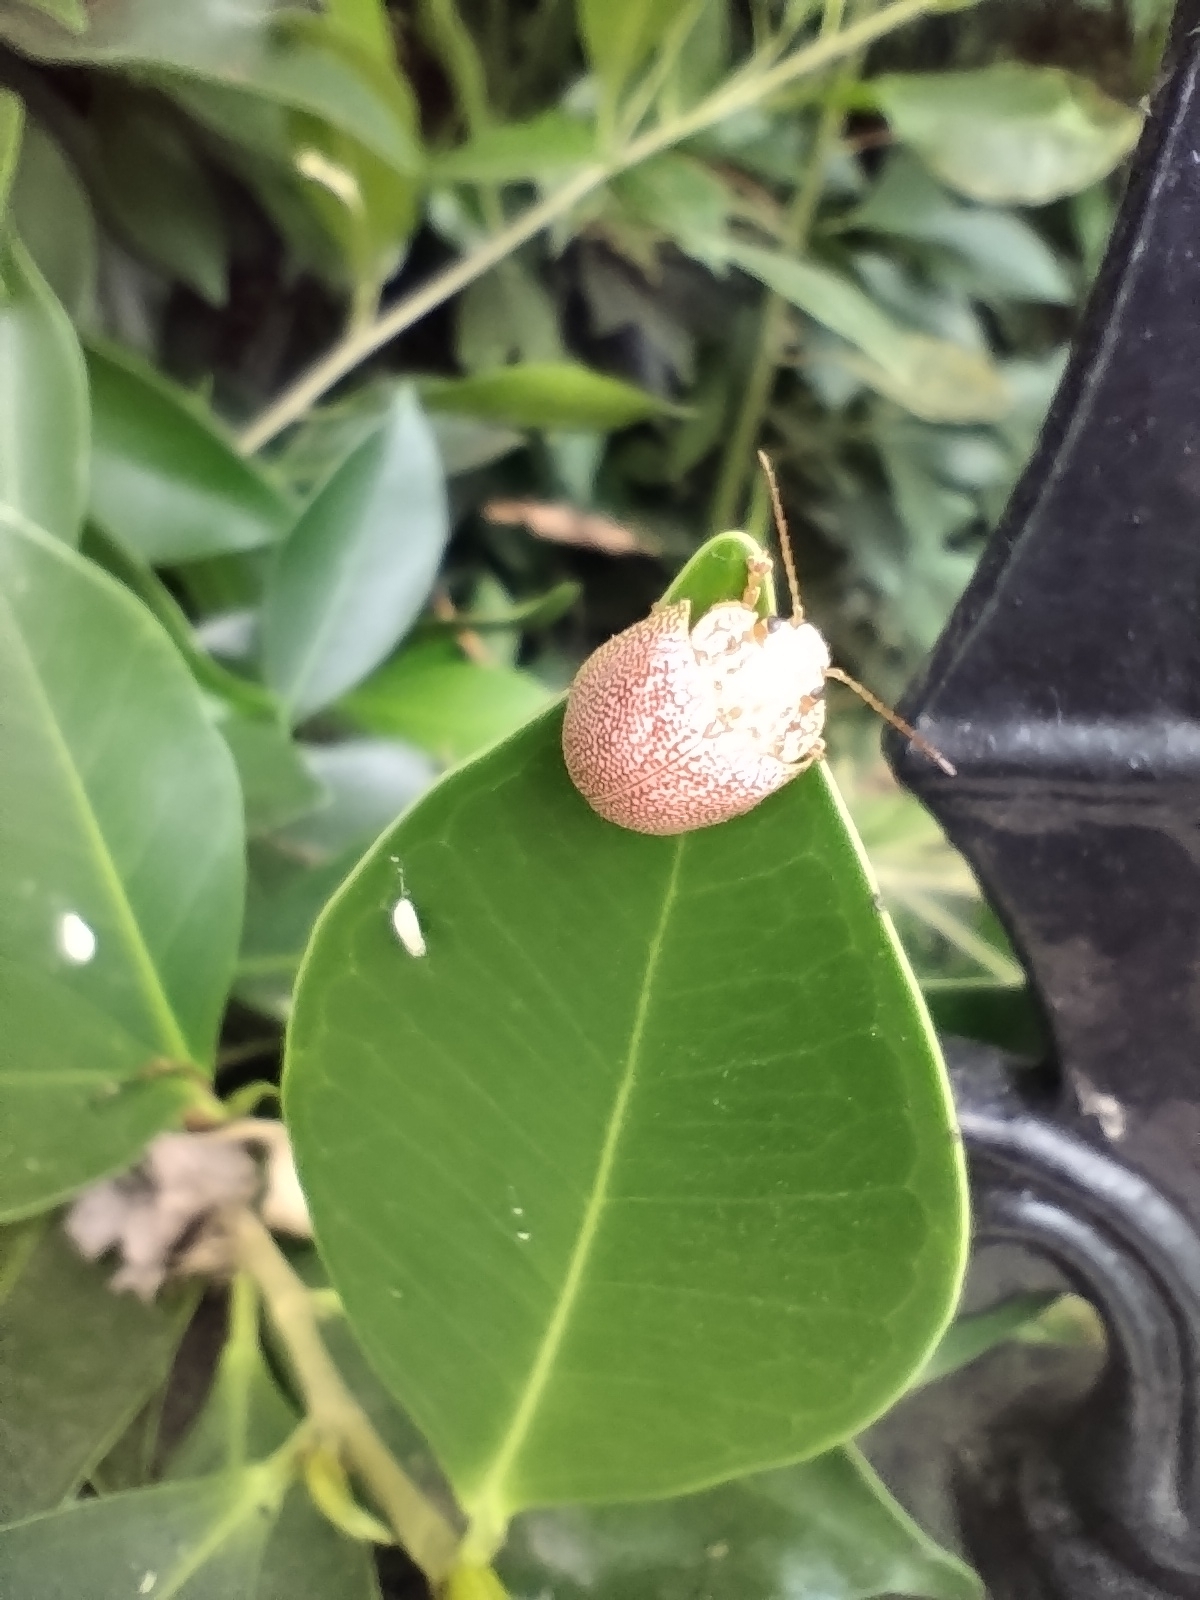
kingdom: Animalia
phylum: Arthropoda
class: Insecta
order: Coleoptera
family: Chrysomelidae
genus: Paropsis
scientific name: Paropsis
